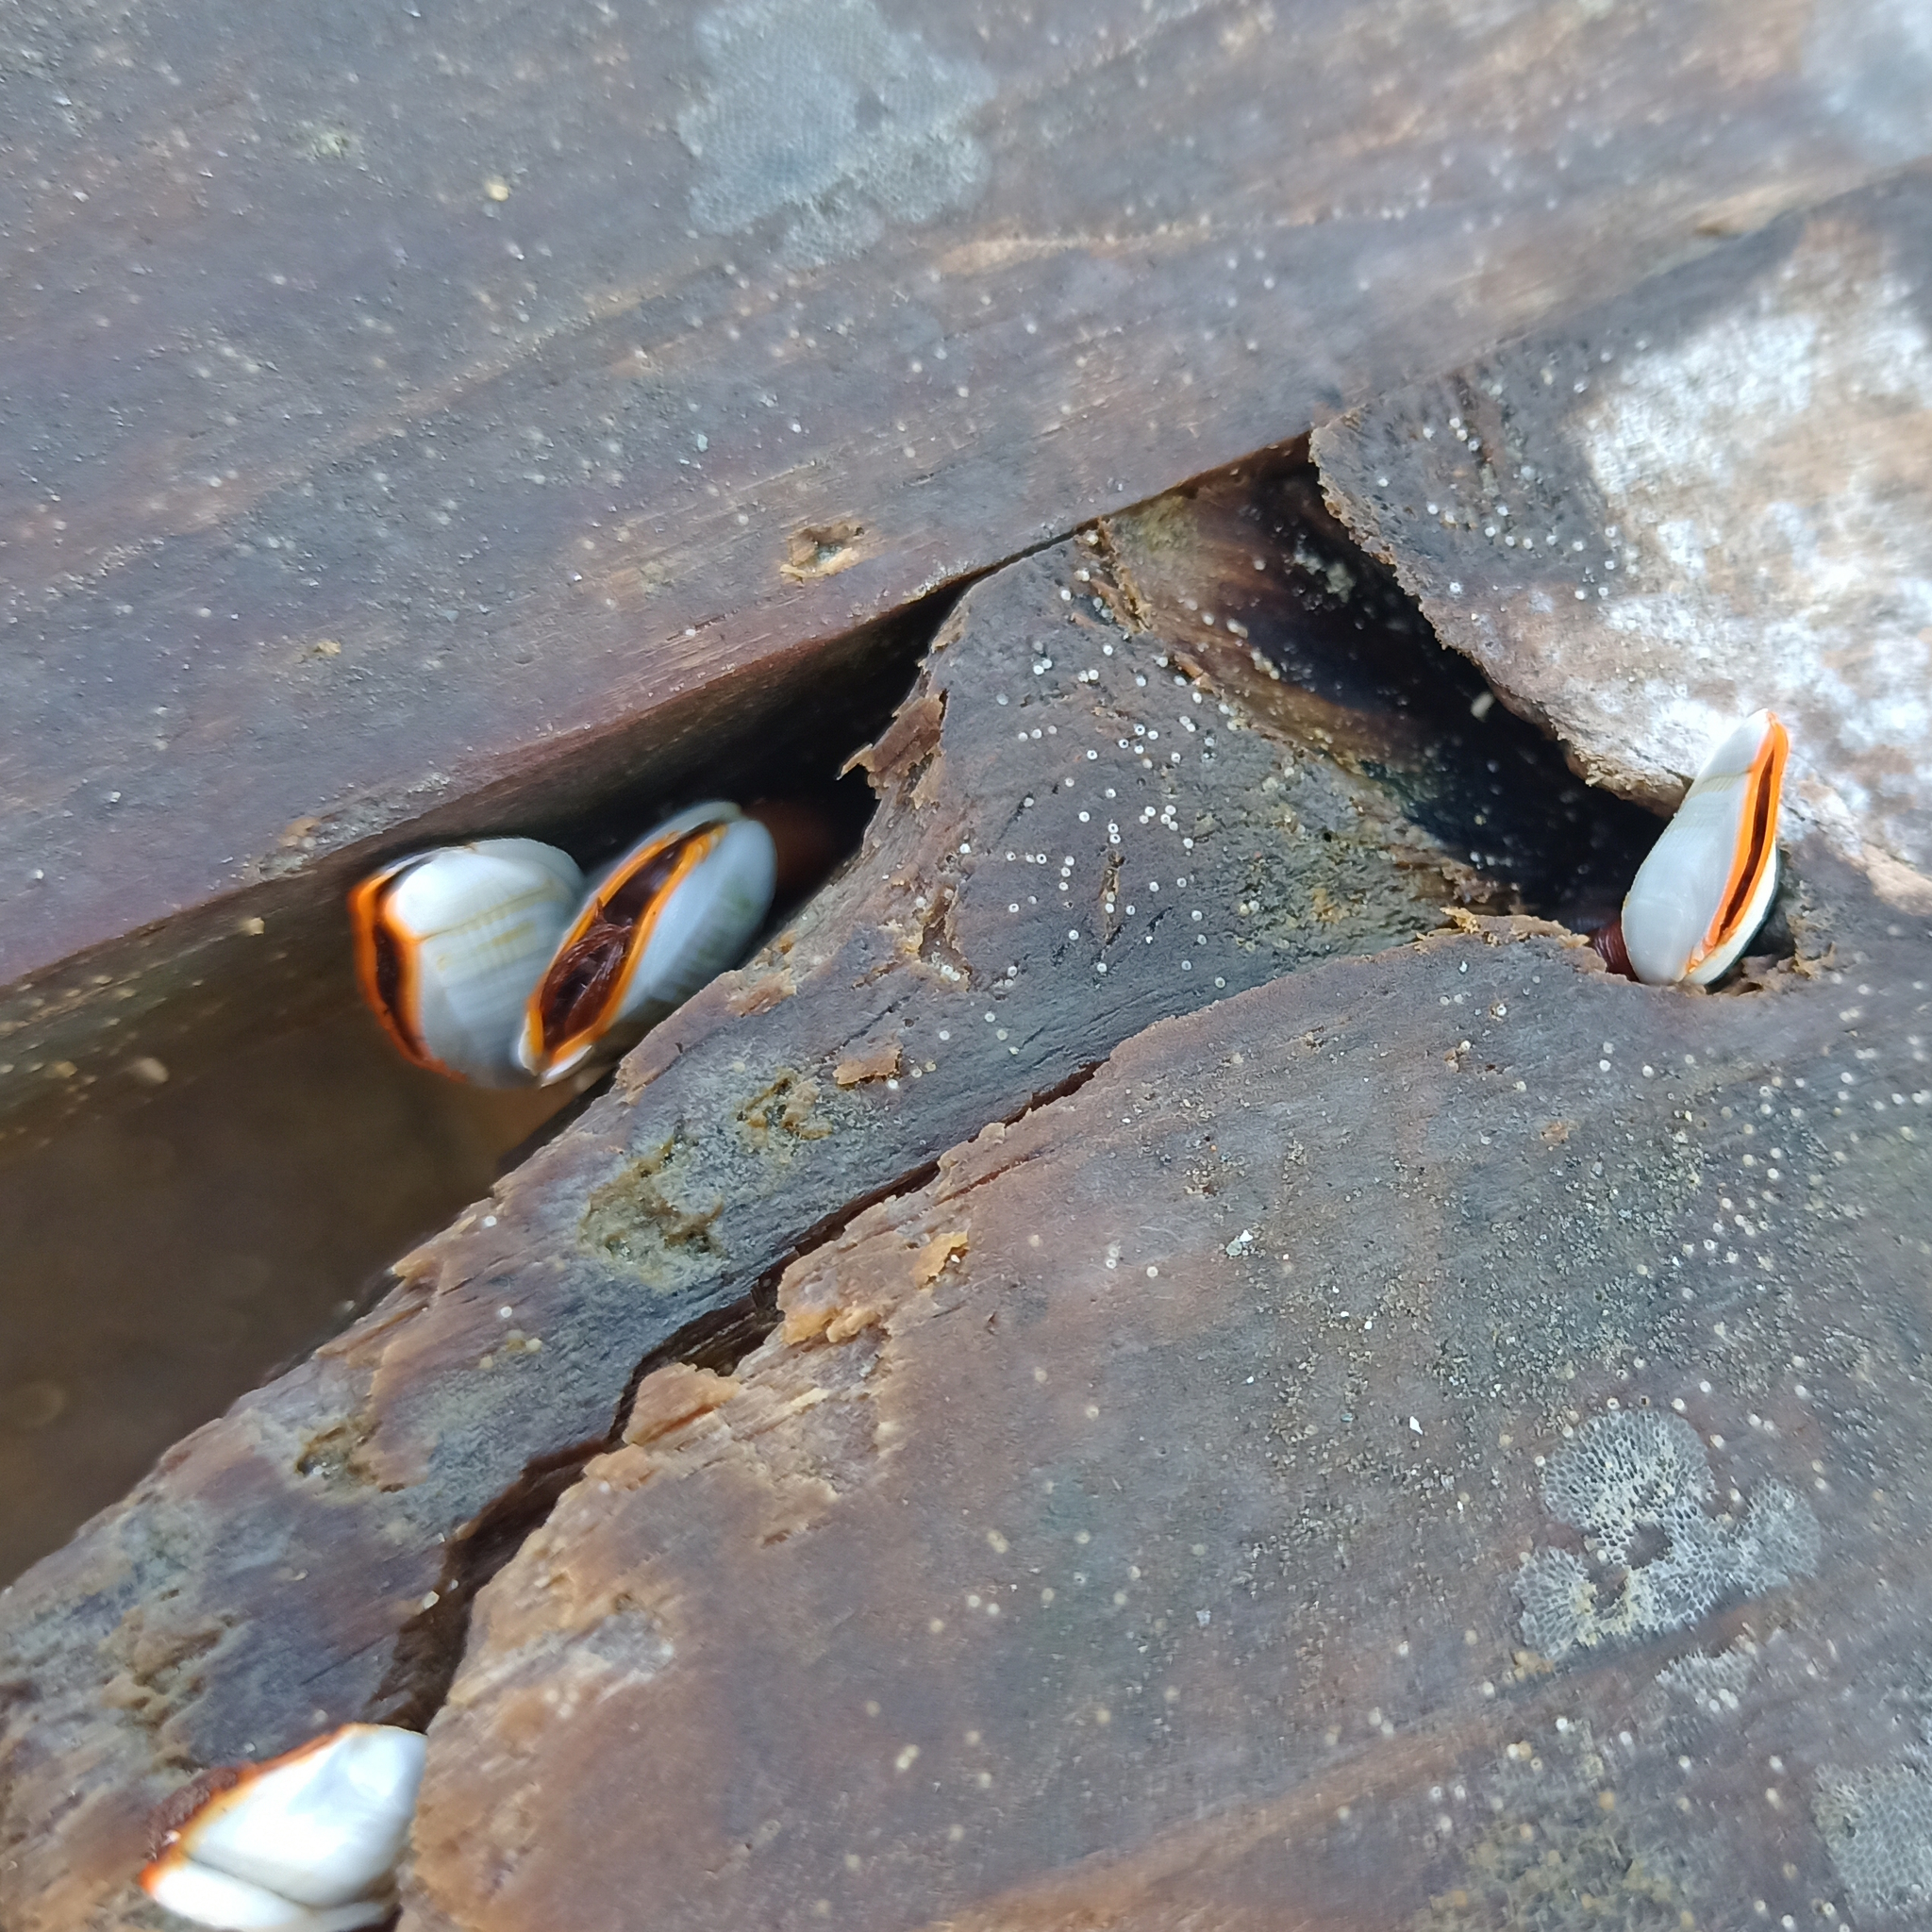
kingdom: Animalia
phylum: Arthropoda
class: Maxillopoda
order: Pedunculata
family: Lepadidae
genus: Lepas
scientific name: Lepas anserifera
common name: Goose barnacle
